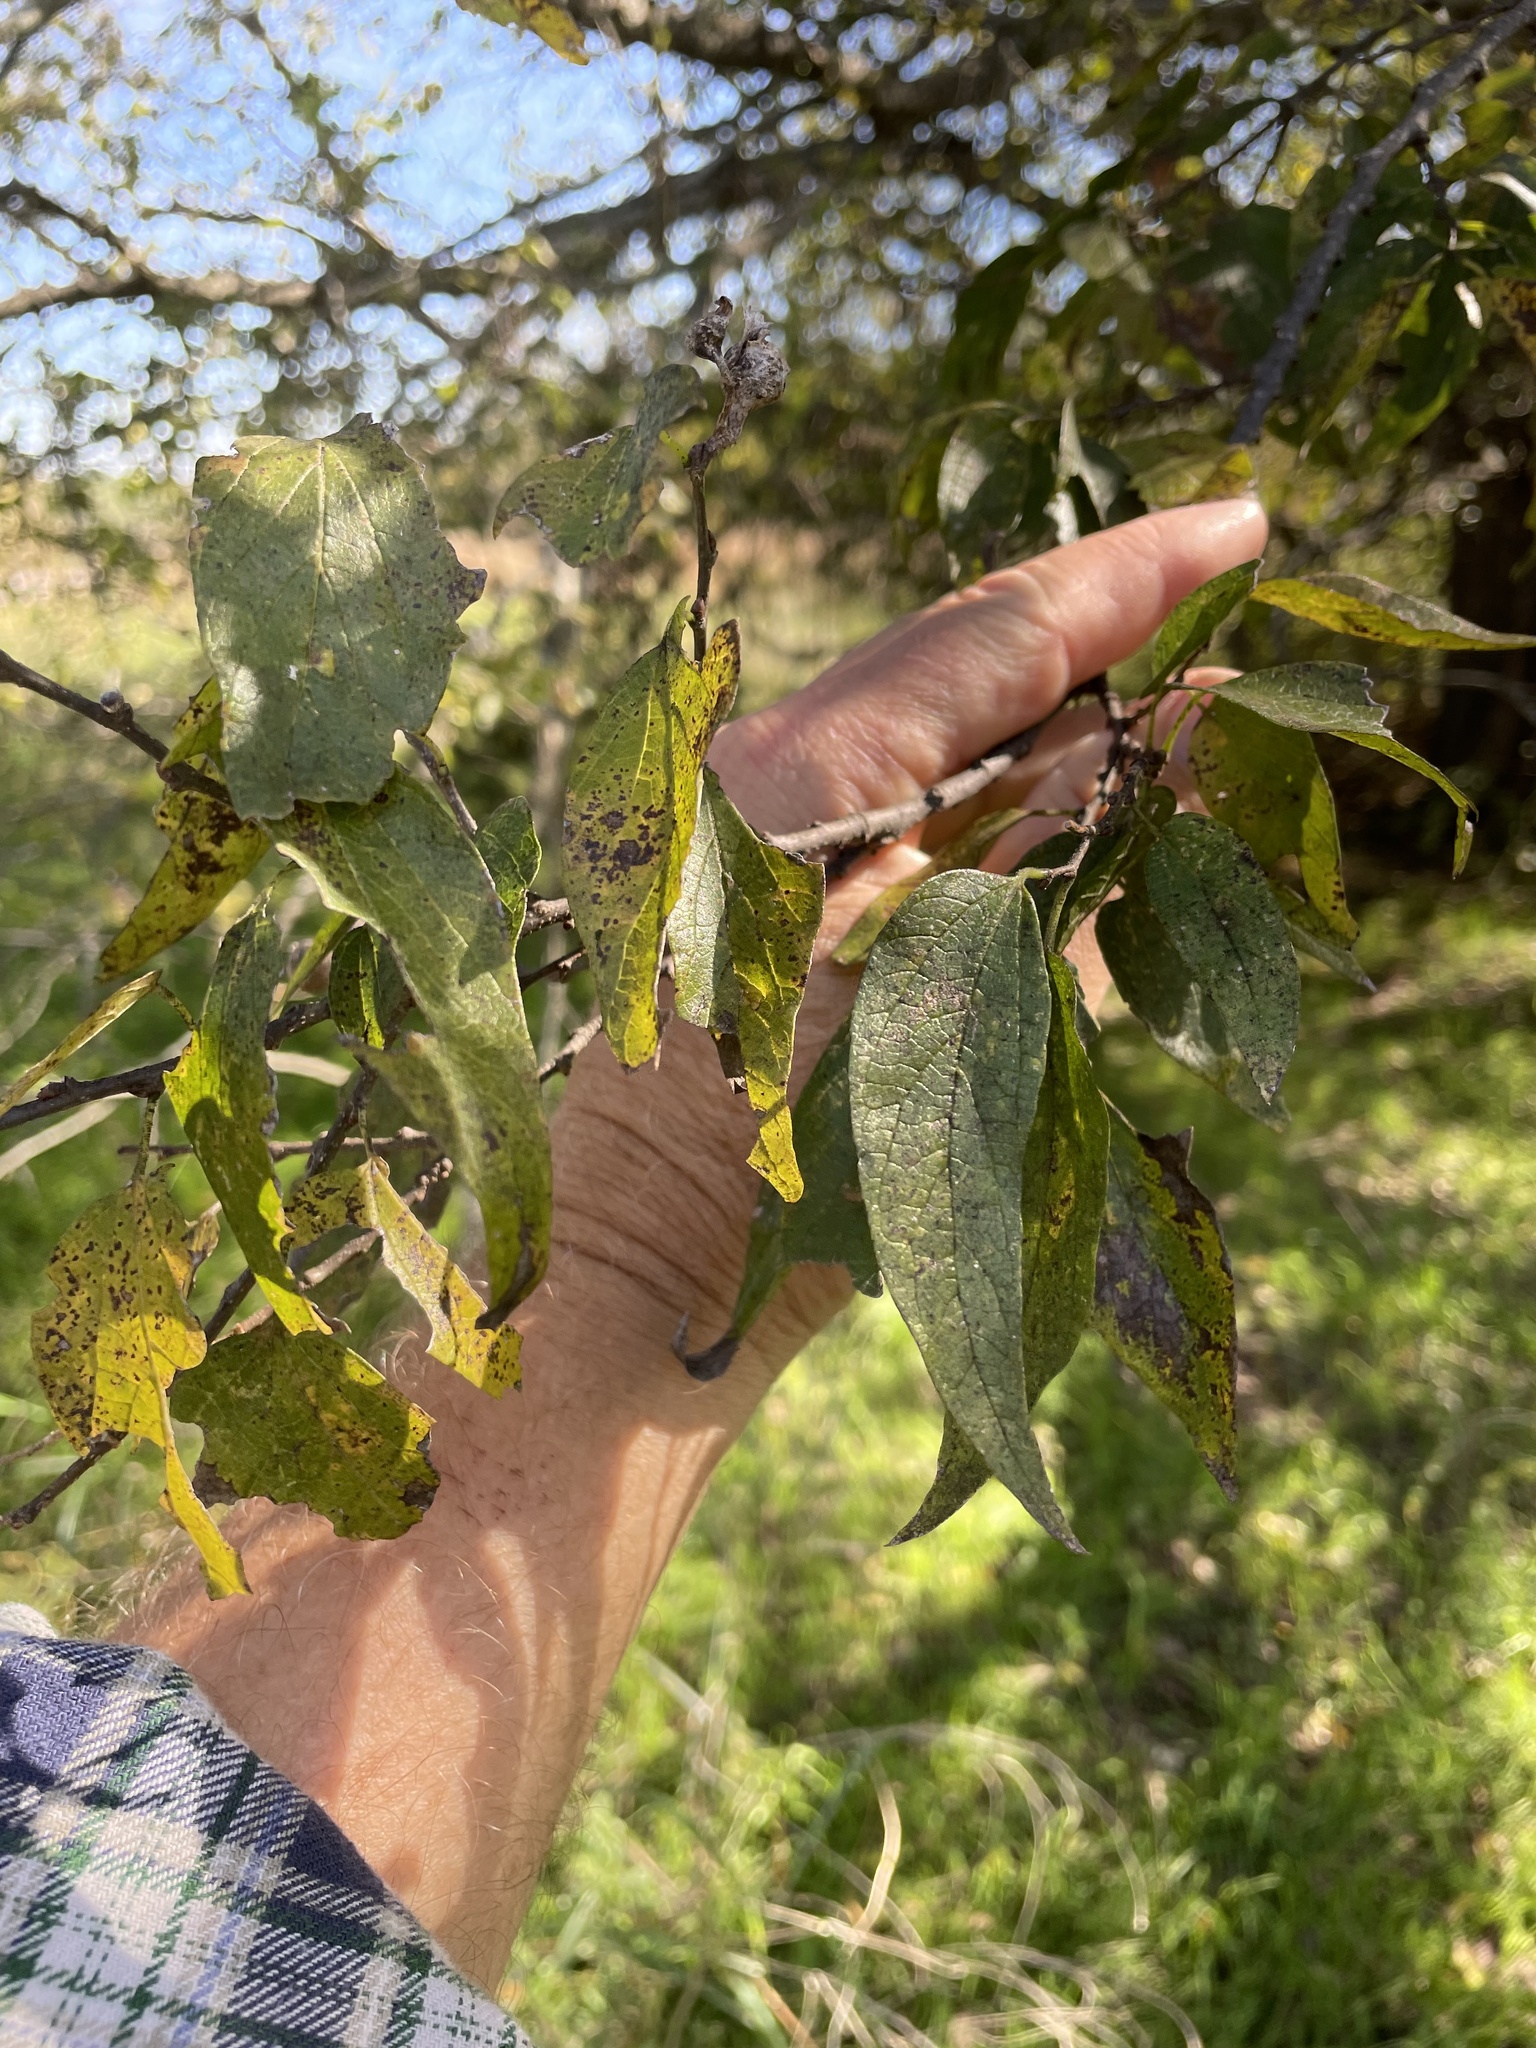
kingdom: Plantae
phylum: Tracheophyta
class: Magnoliopsida
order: Rosales
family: Cannabaceae
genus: Celtis
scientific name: Celtis laevigata
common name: Sugarberry
